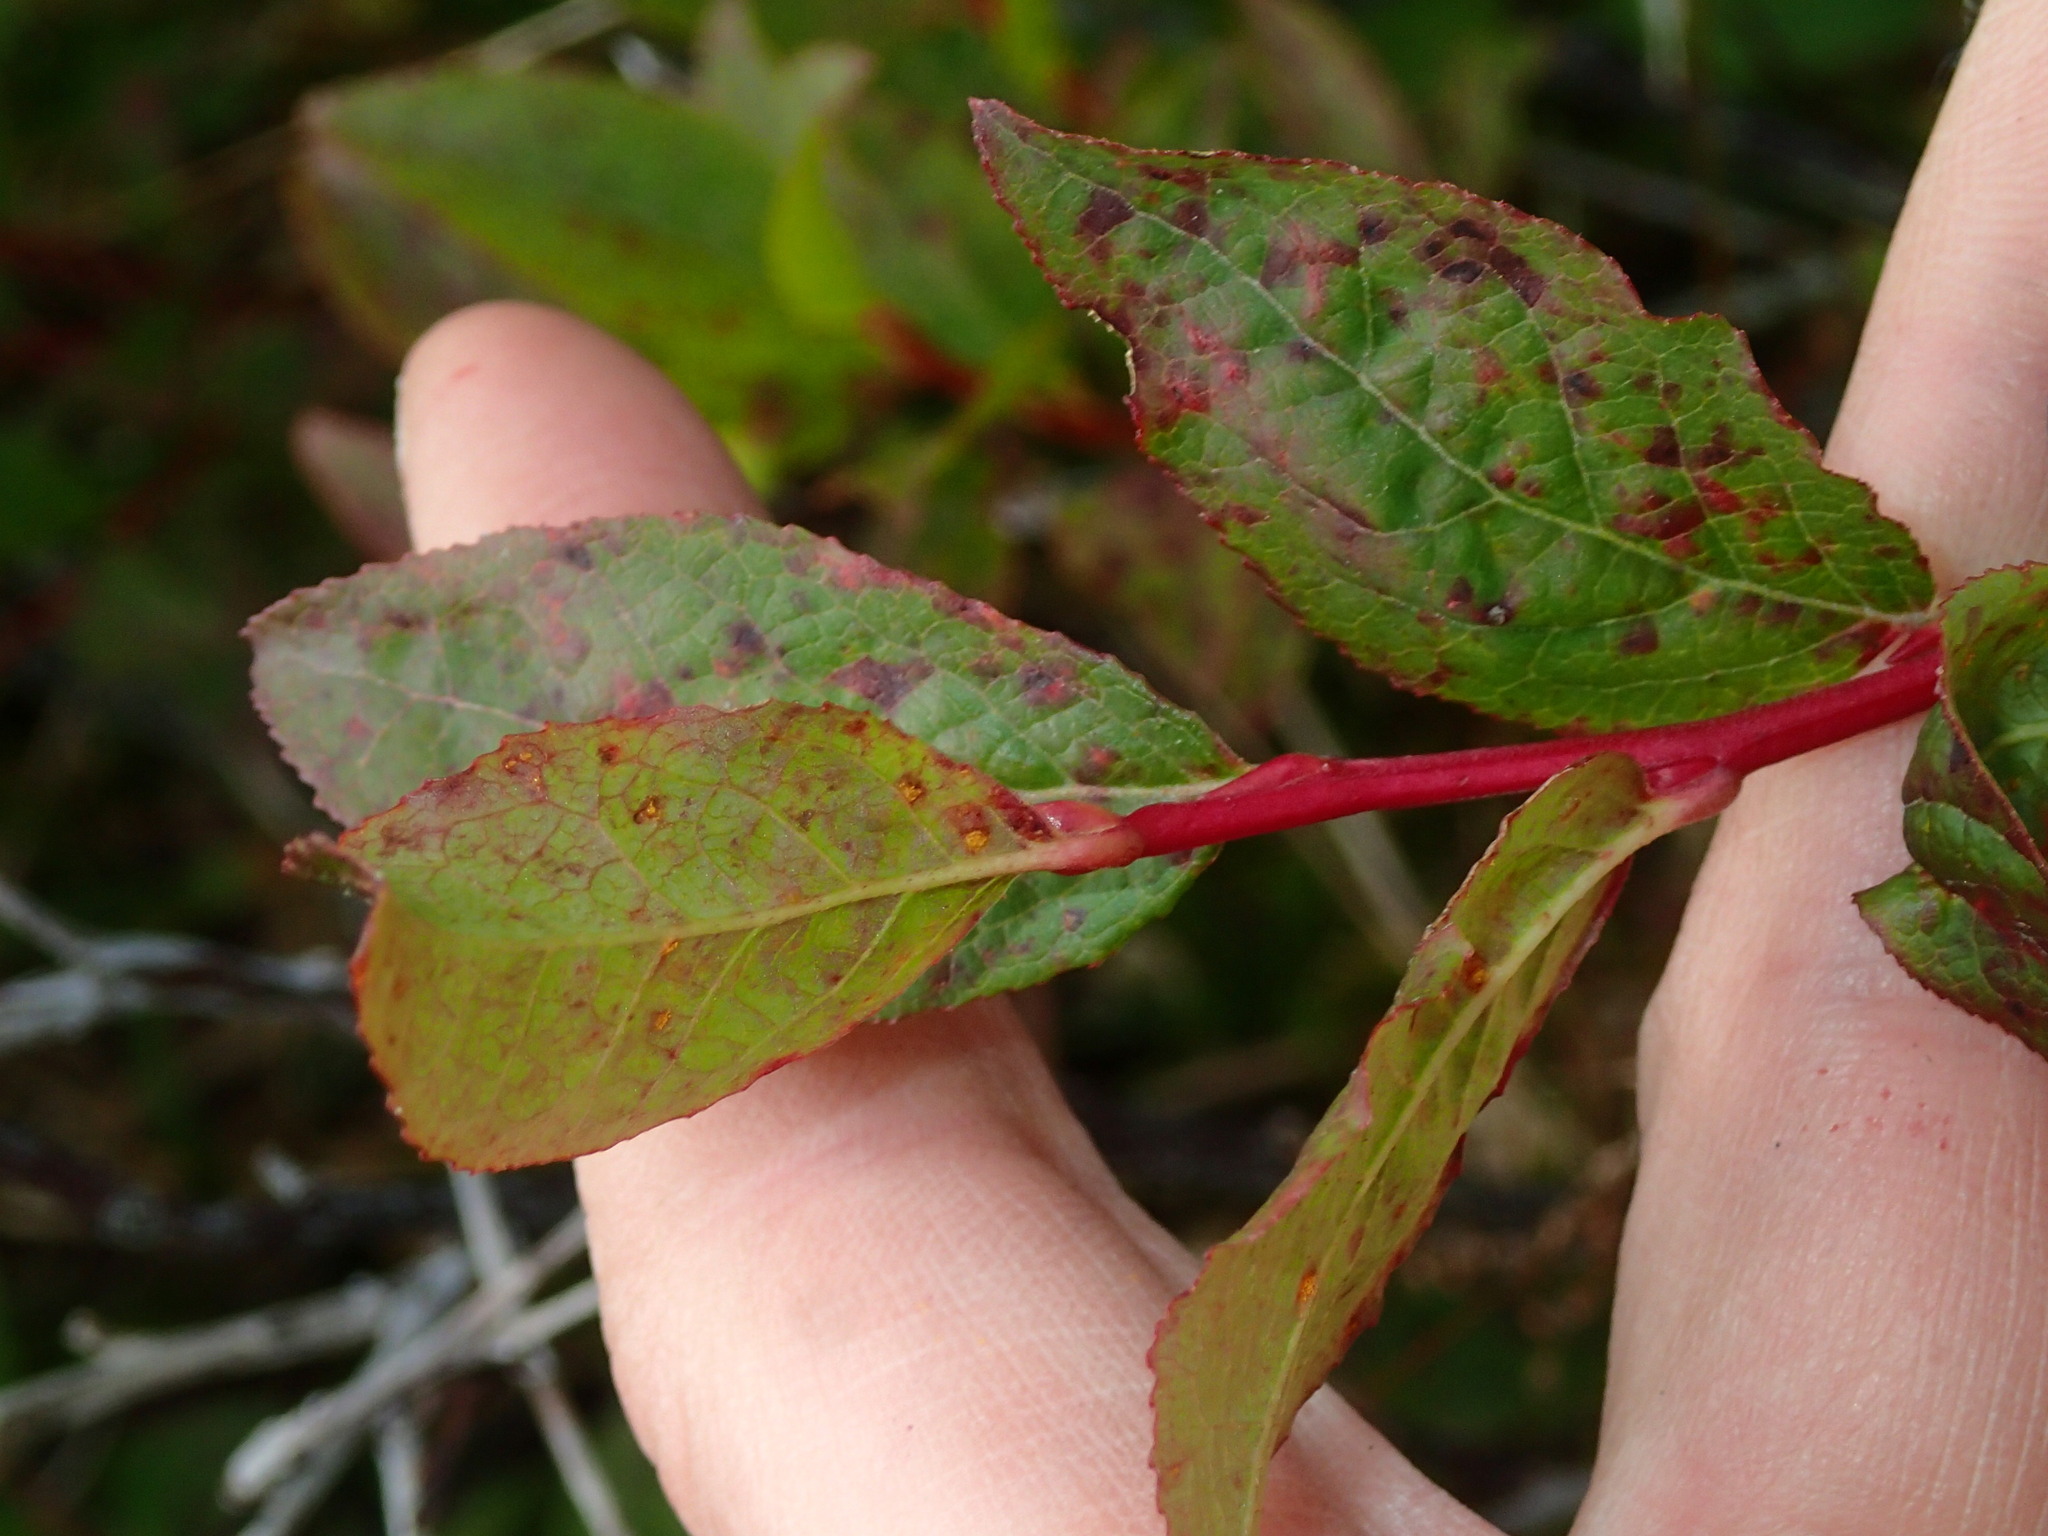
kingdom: Plantae
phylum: Tracheophyta
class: Magnoliopsida
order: Ericales
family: Ericaceae
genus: Vaccinium
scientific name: Vaccinium membranaceum
